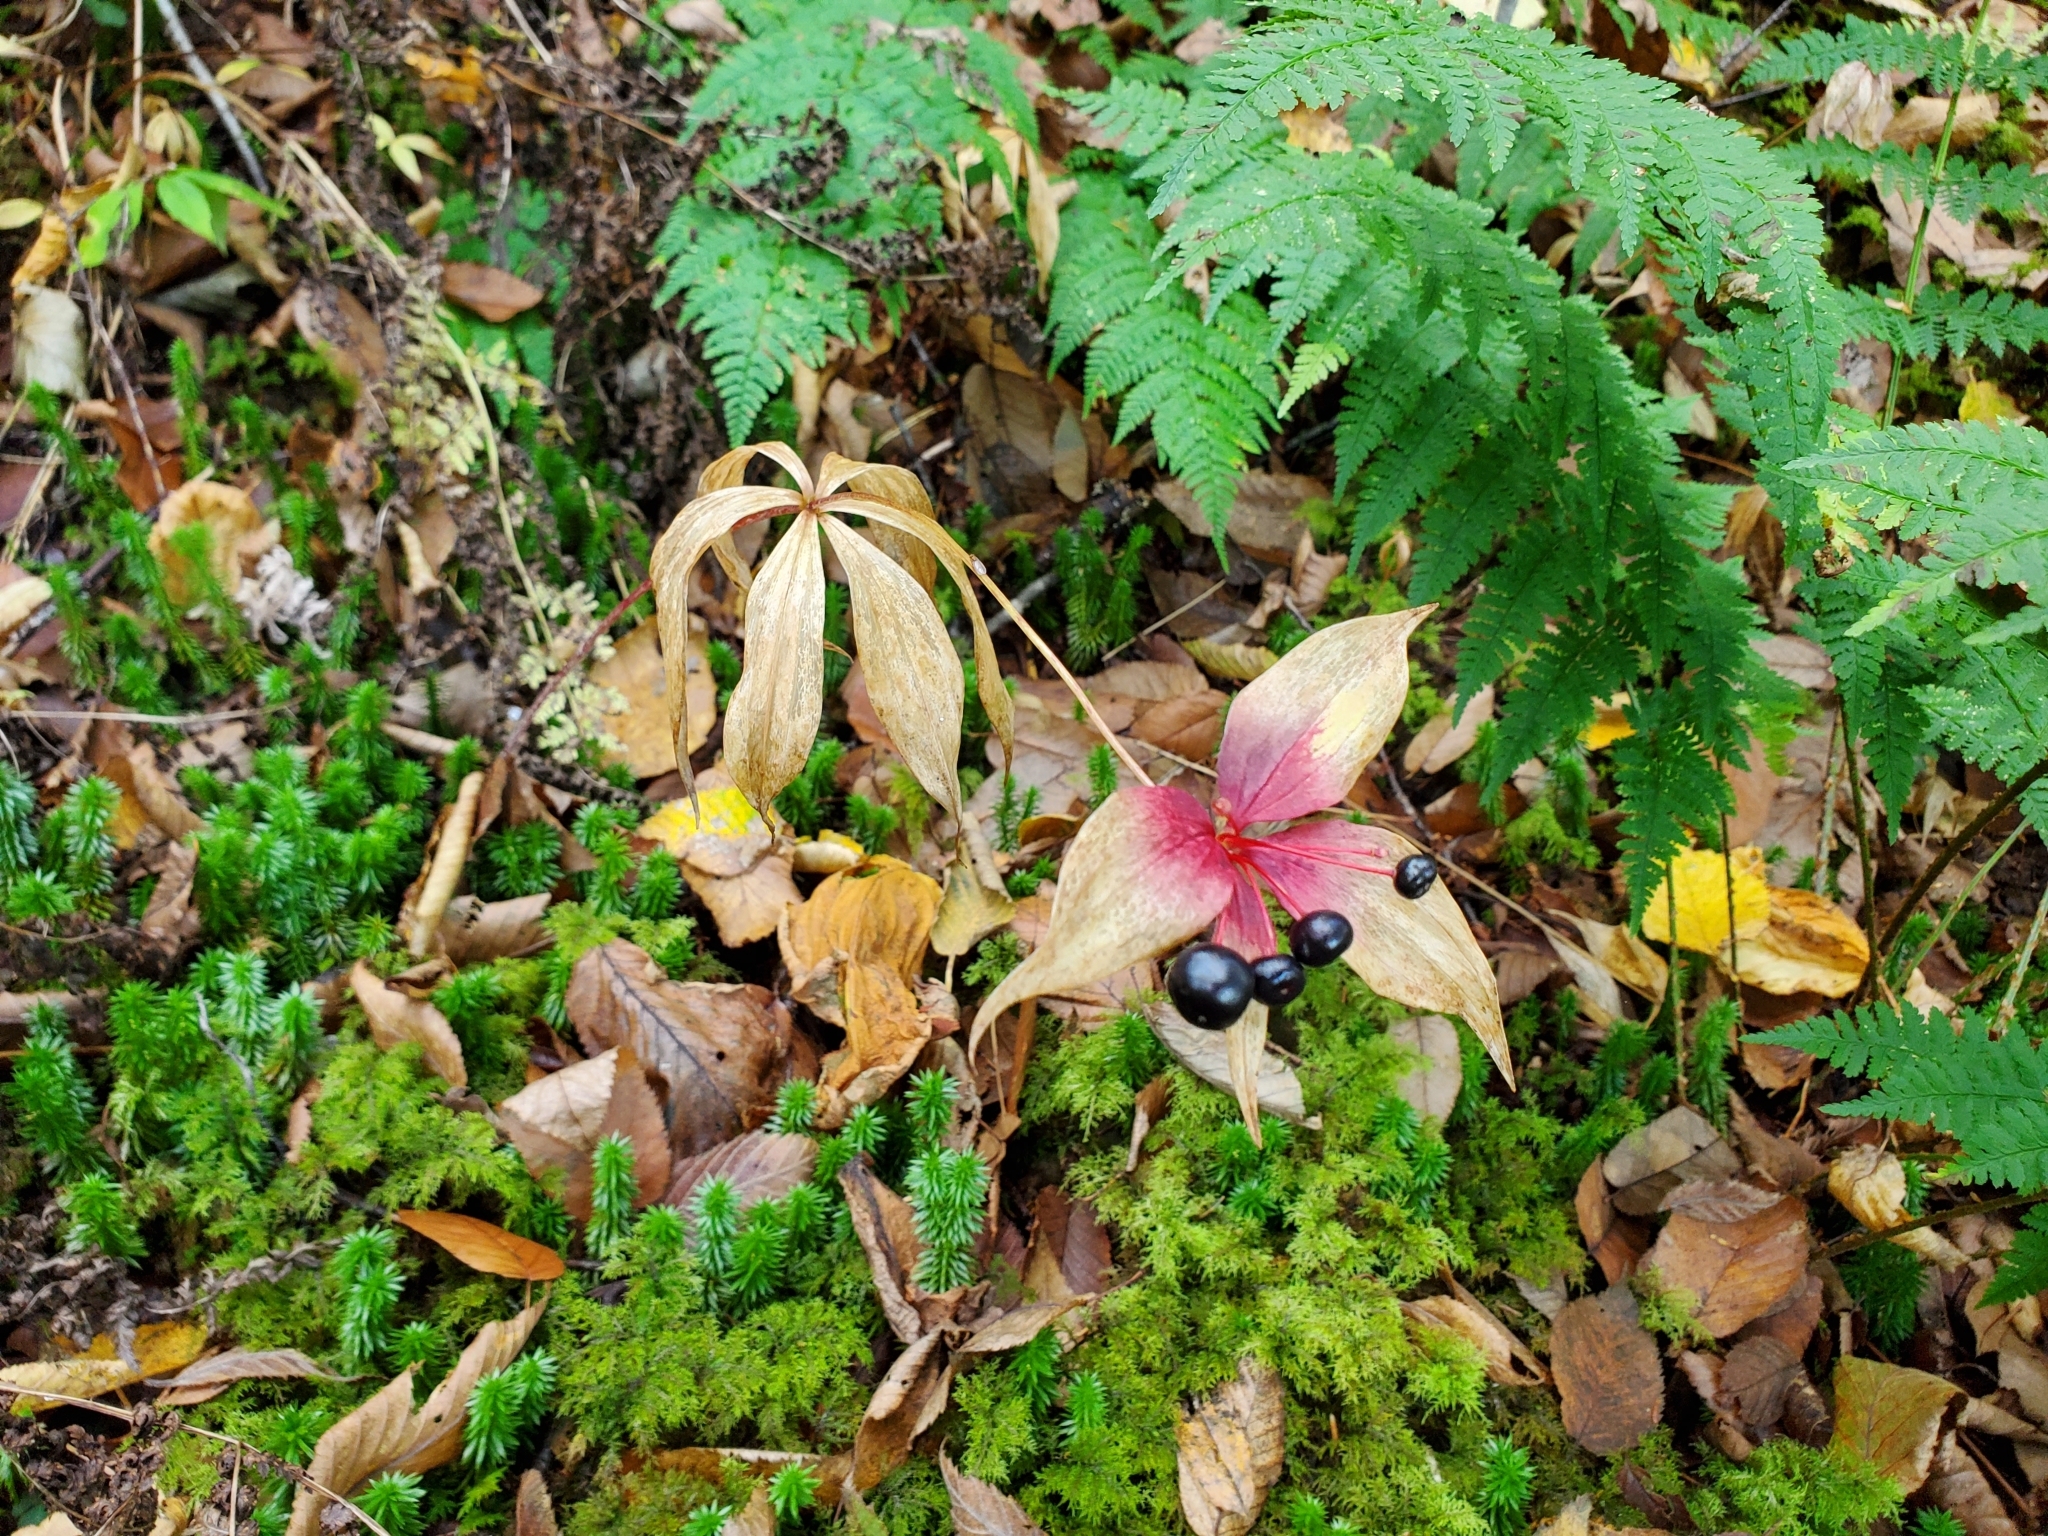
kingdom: Plantae
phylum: Tracheophyta
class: Liliopsida
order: Liliales
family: Liliaceae
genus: Medeola
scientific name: Medeola virginiana
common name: Indian cucumber-root
